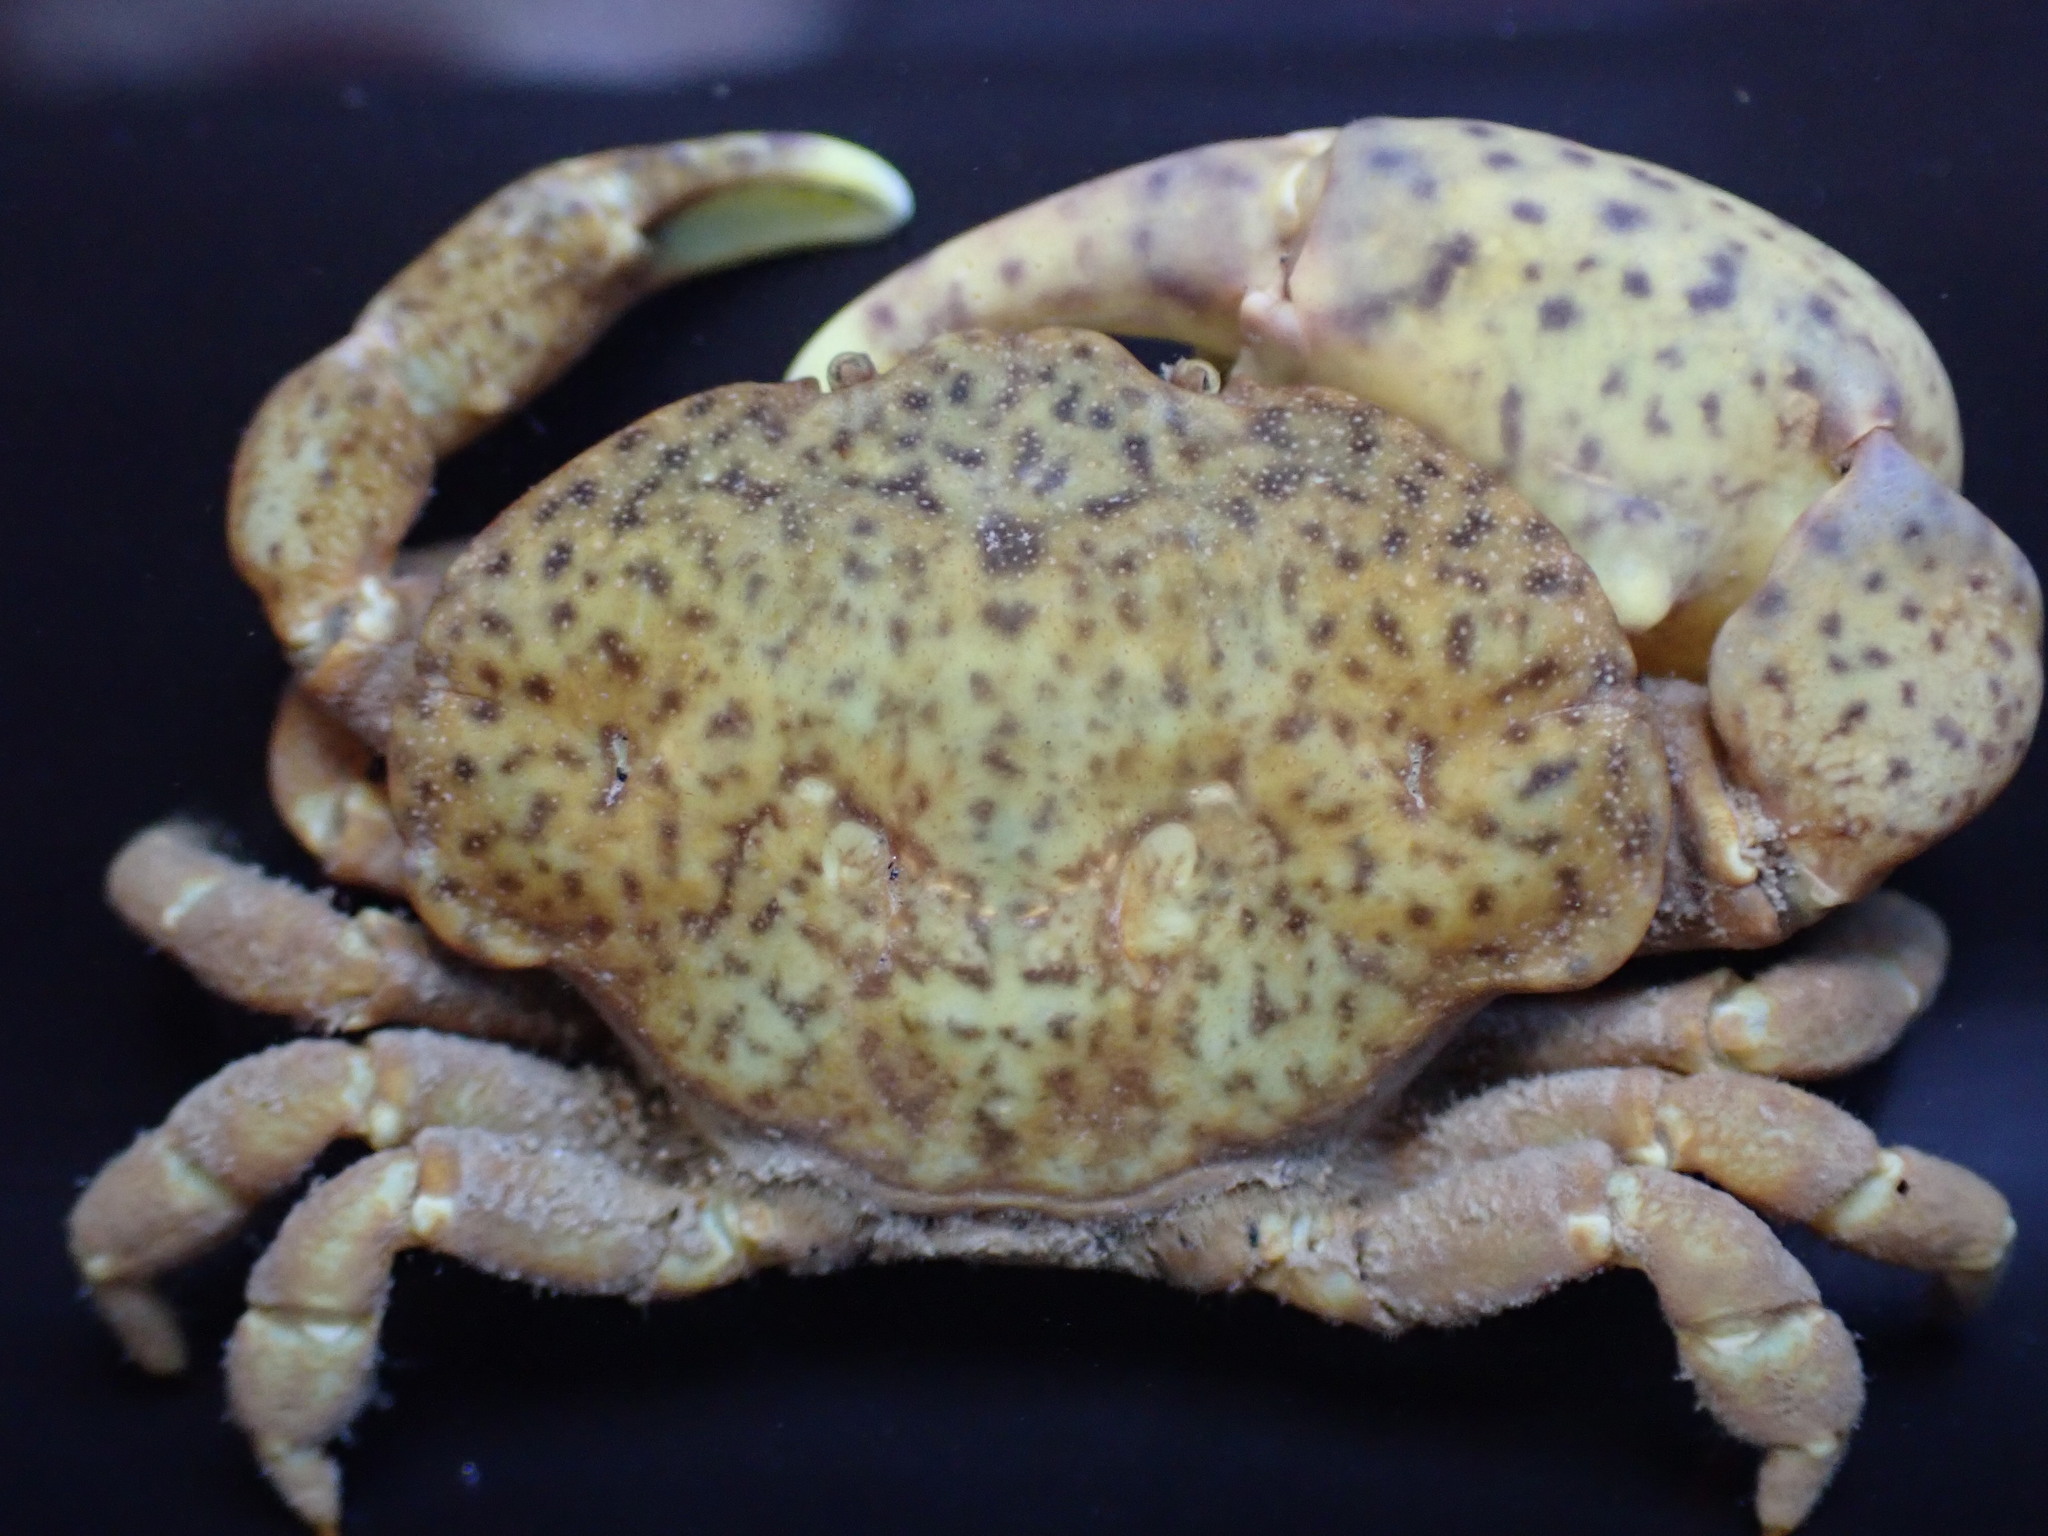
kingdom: Animalia
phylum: Arthropoda
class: Malacostraca
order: Decapoda
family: Heteroziidae
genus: Heterozius
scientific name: Heterozius rotundifrons
